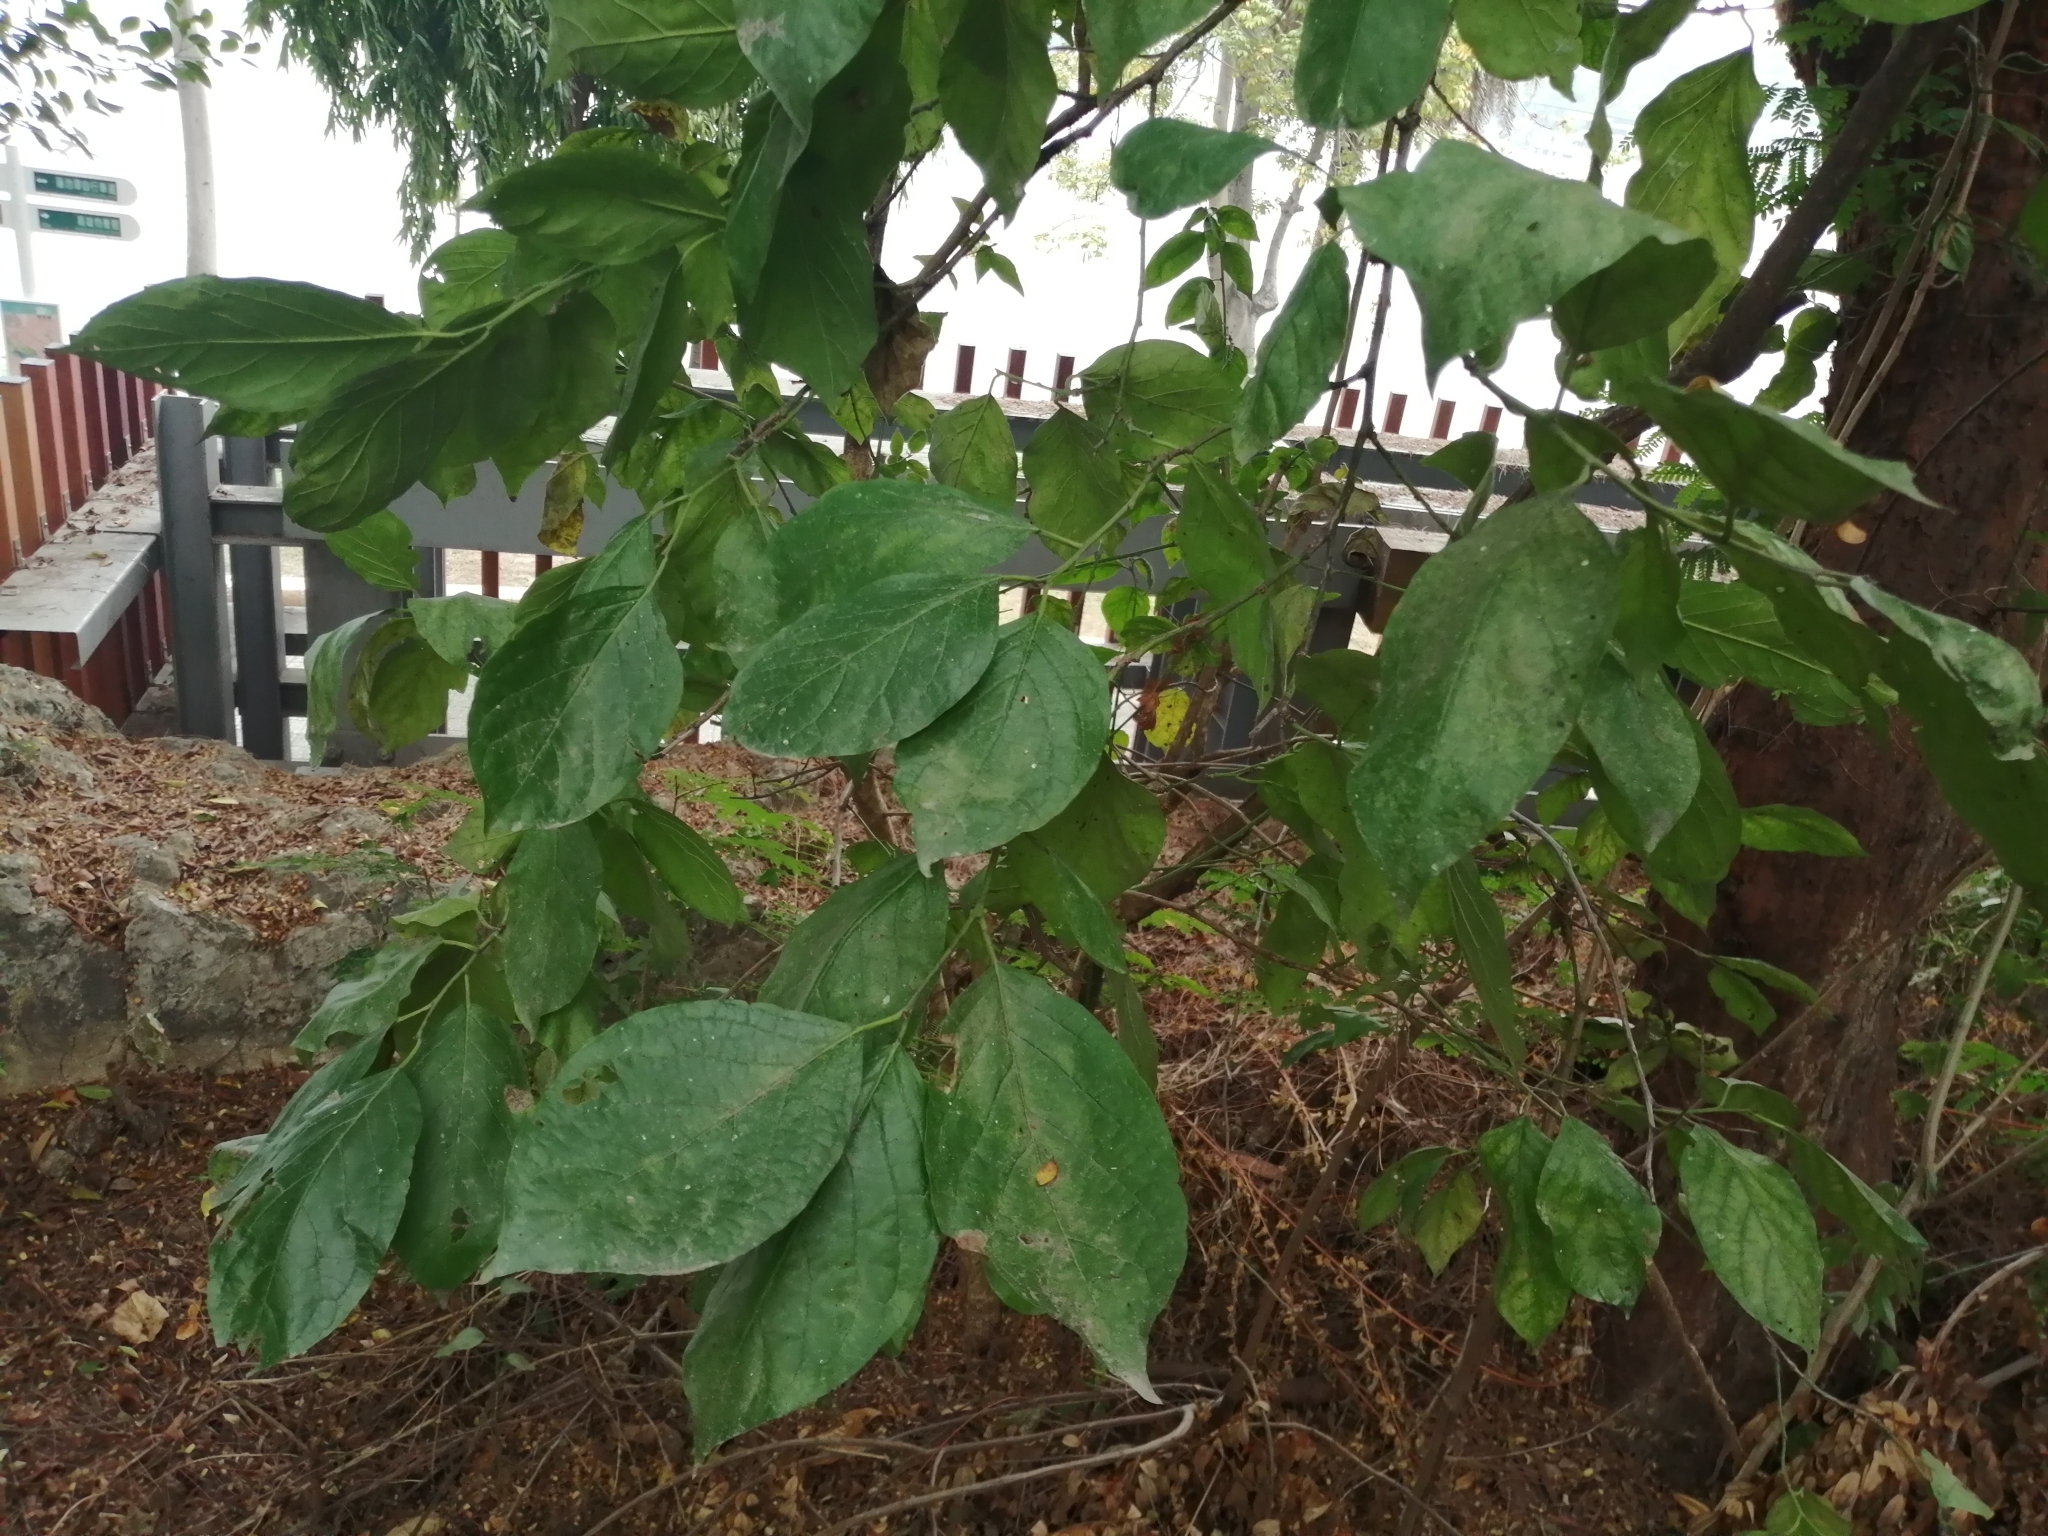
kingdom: Plantae
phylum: Tracheophyta
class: Magnoliopsida
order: Boraginales
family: Ehretiaceae
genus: Ehretia
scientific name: Ehretia resinosa
